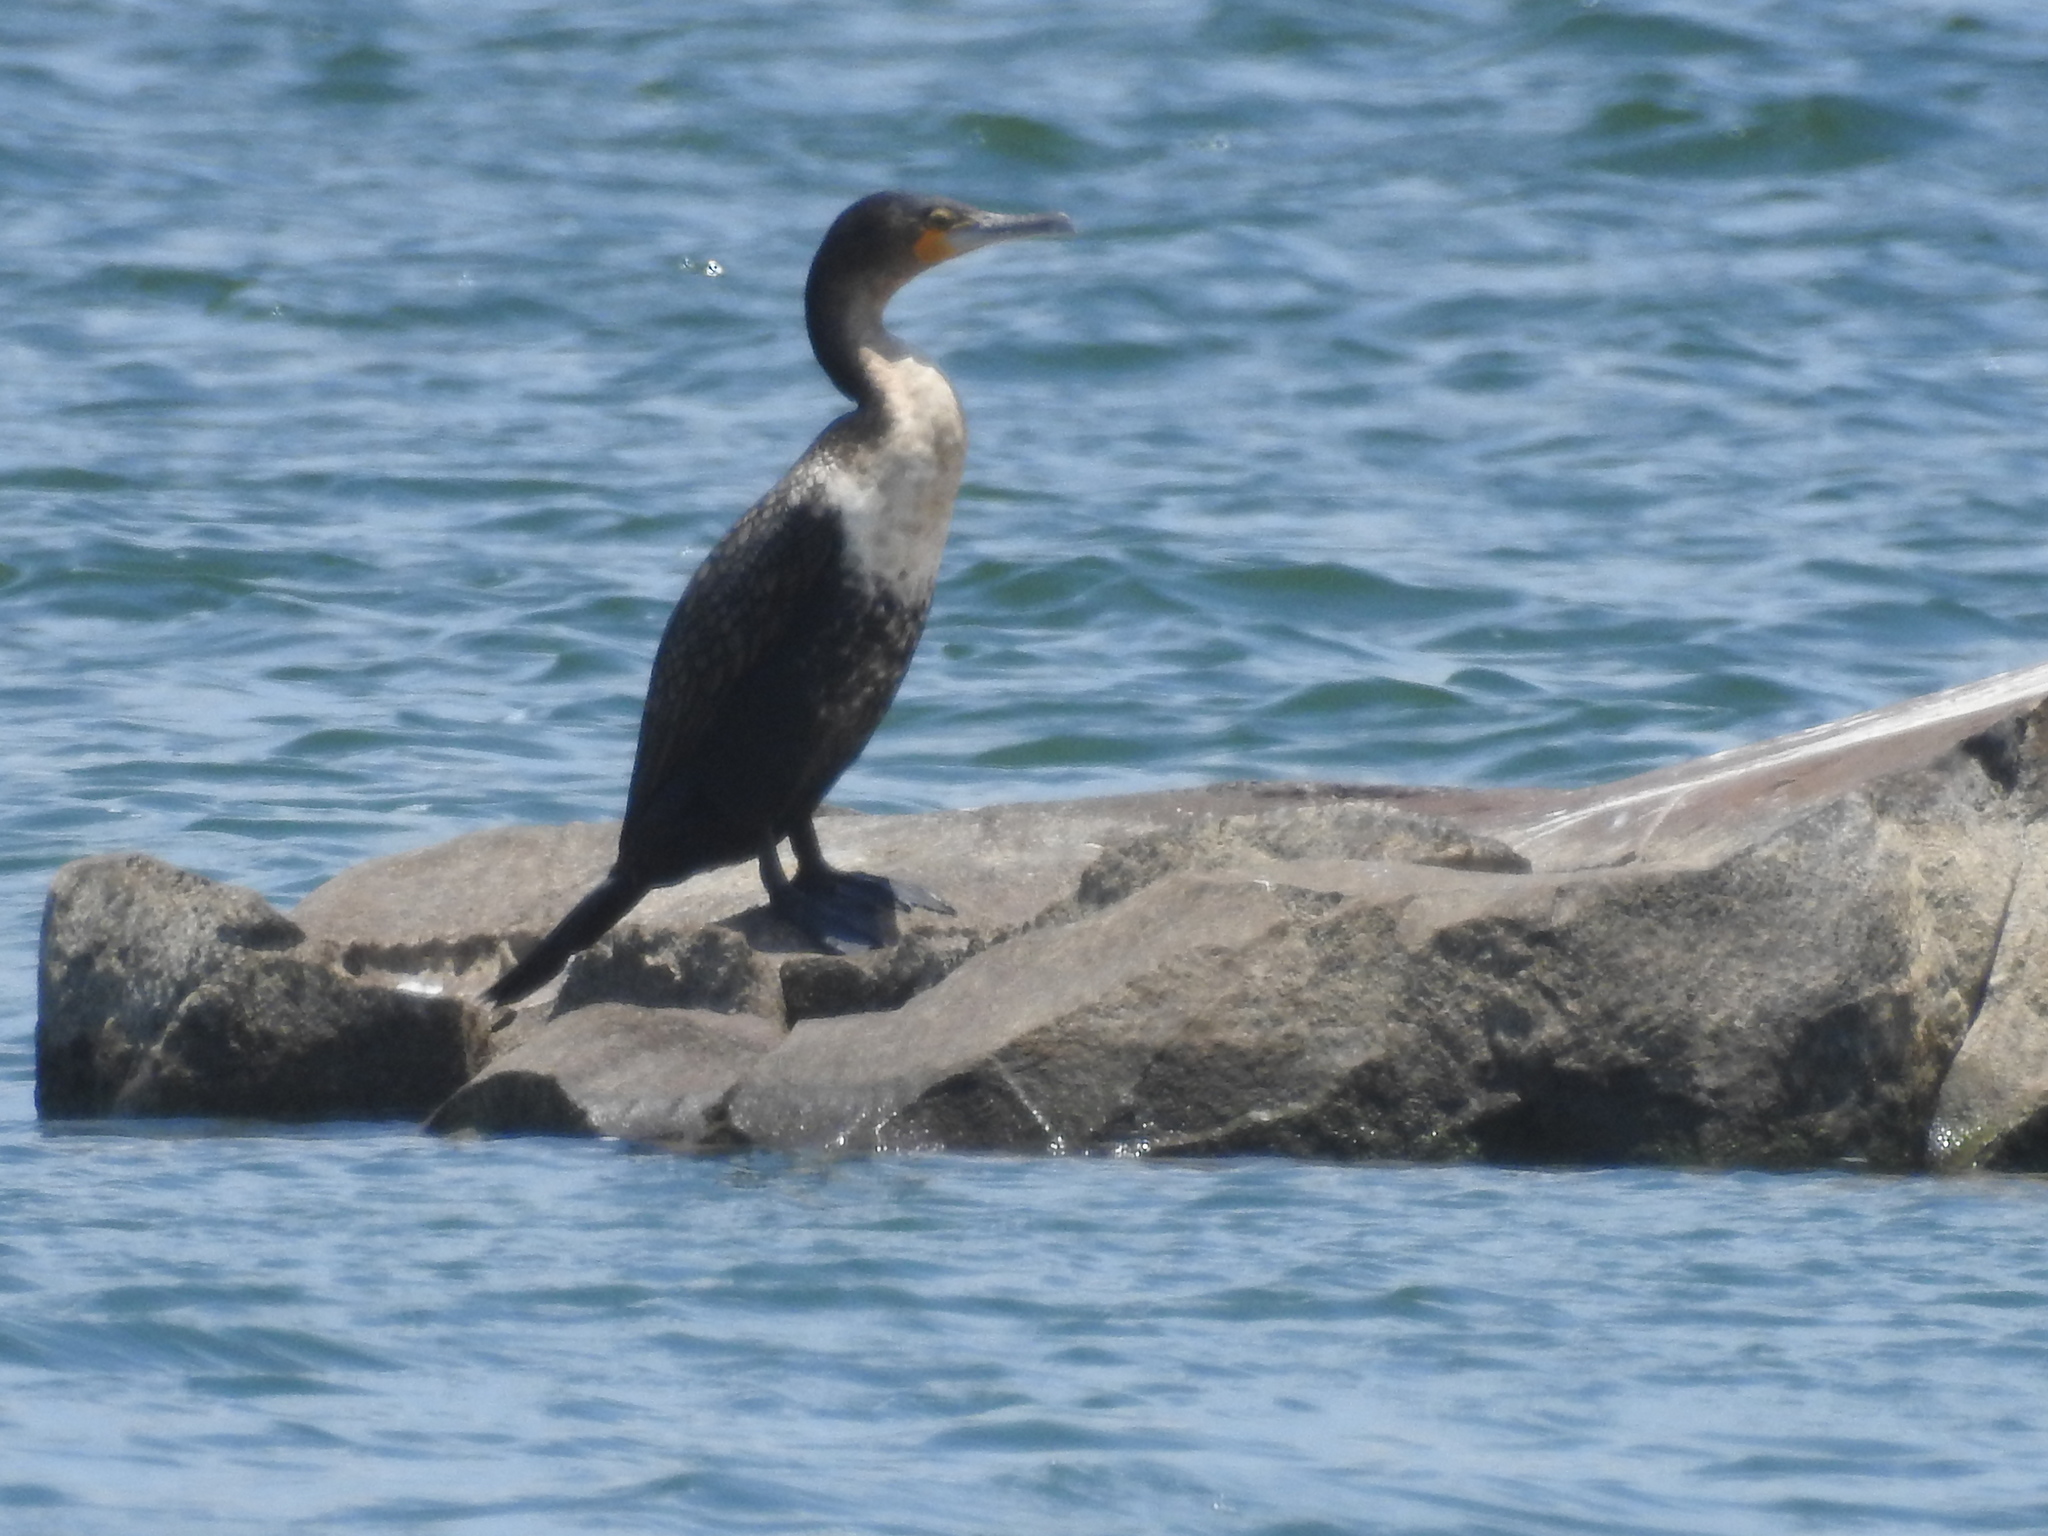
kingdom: Animalia
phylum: Chordata
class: Aves
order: Suliformes
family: Phalacrocoracidae
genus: Phalacrocorax
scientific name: Phalacrocorax carbo
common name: Great cormorant
